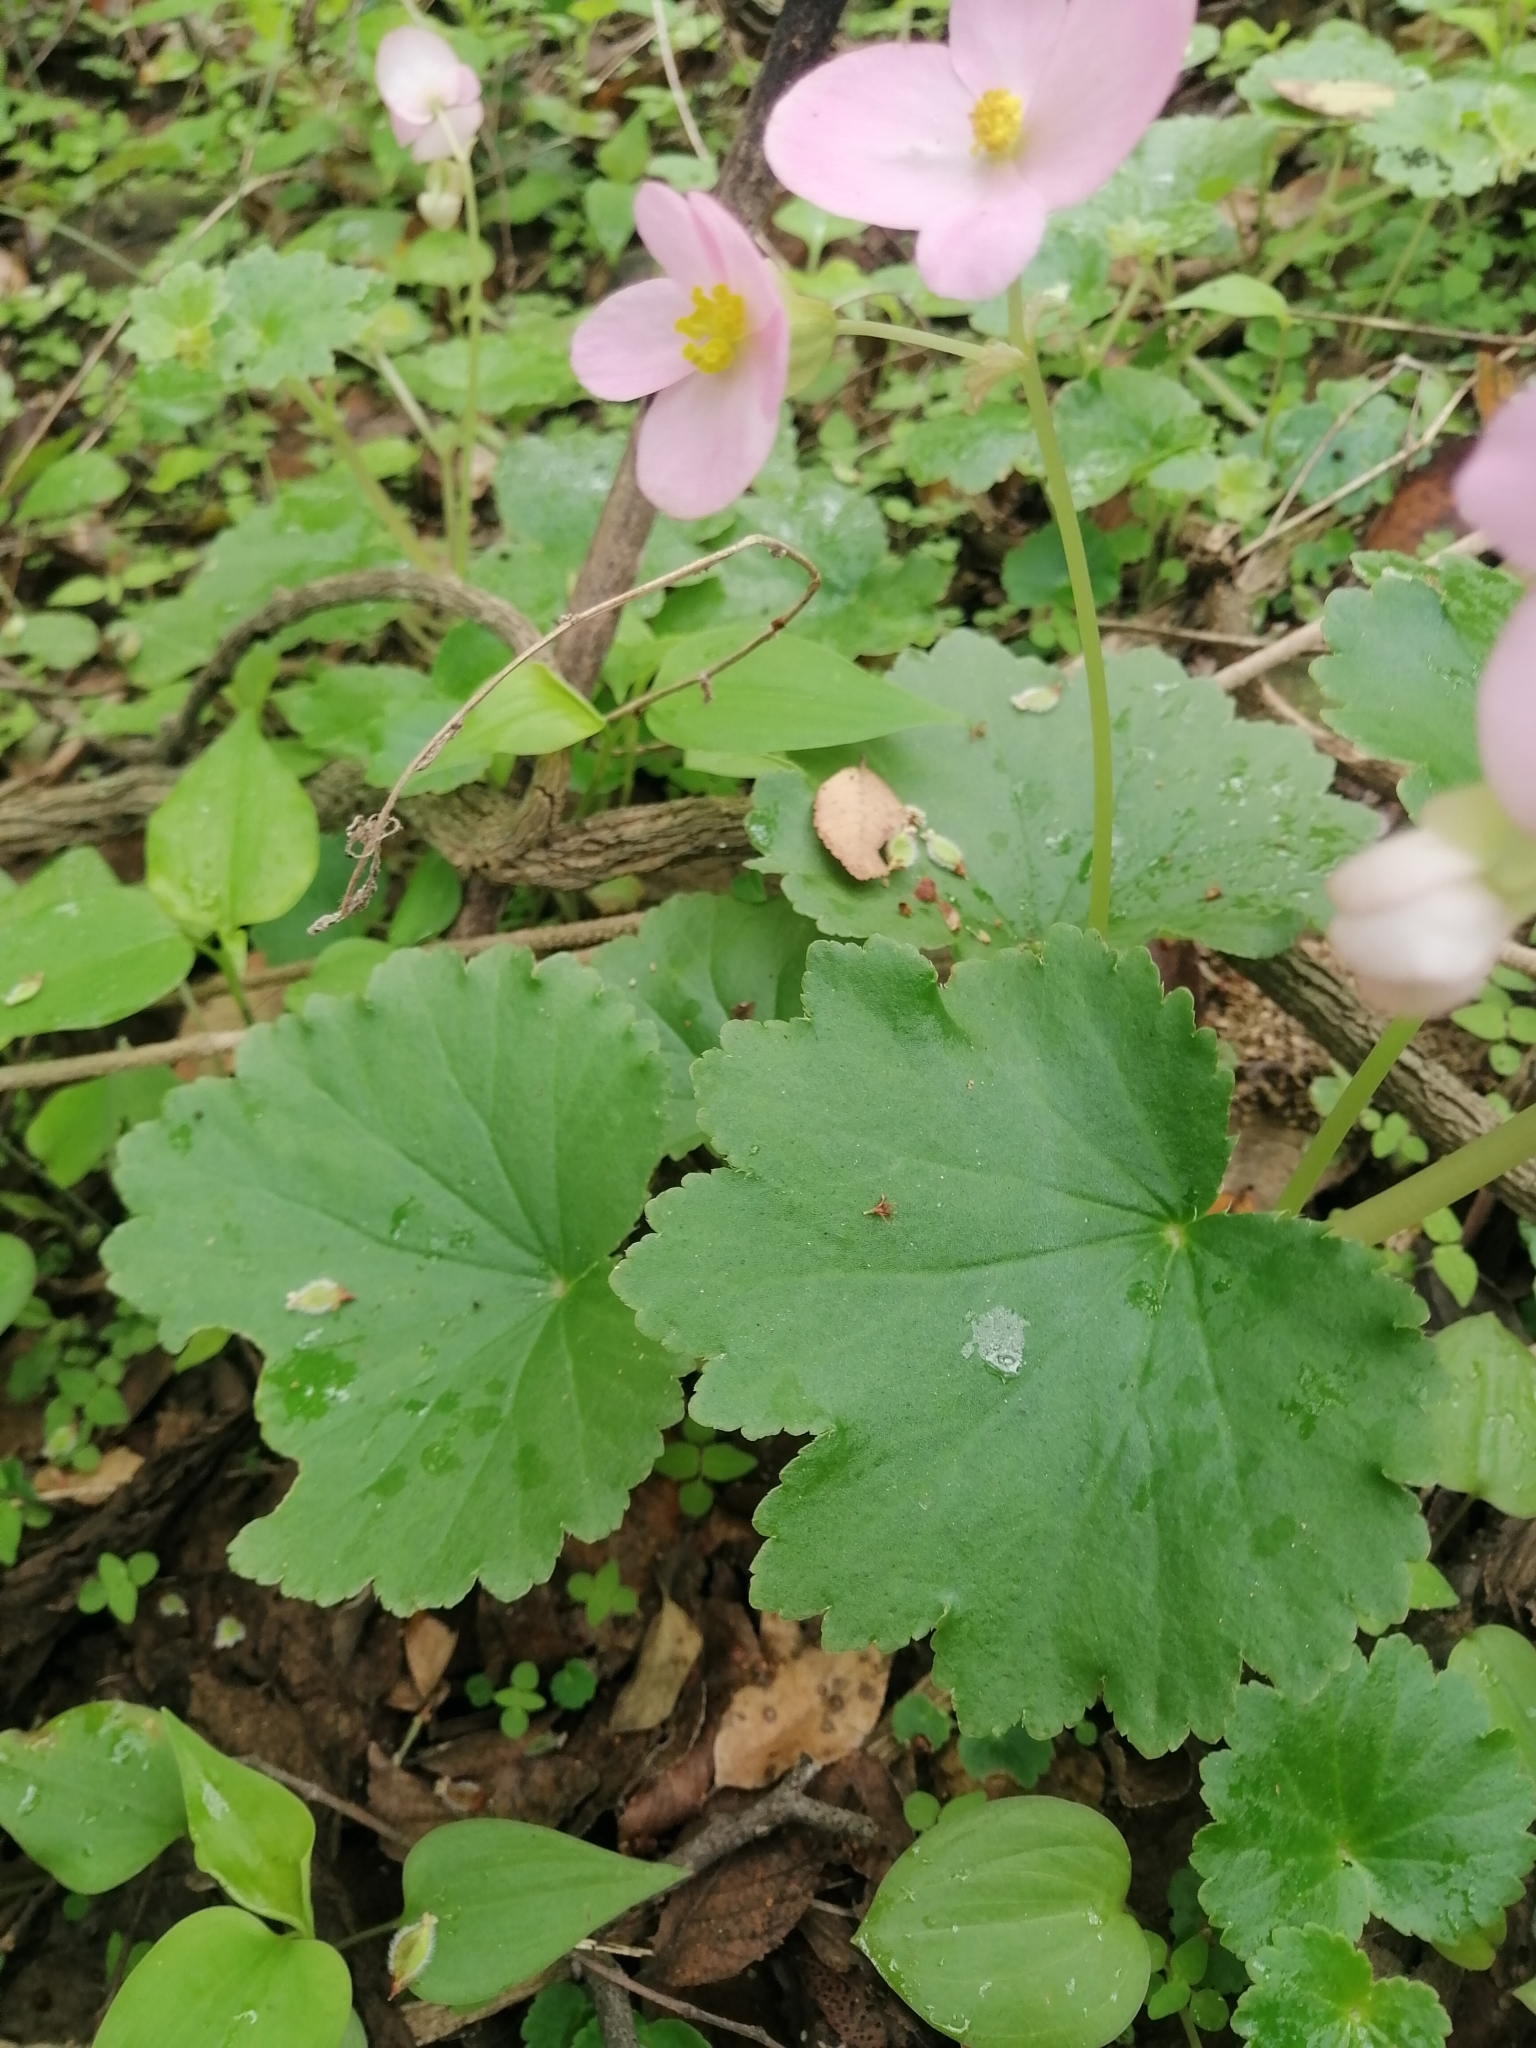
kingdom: Plantae
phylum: Tracheophyta
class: Magnoliopsida
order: Cucurbitales
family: Begoniaceae
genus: Begonia
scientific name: Begonia uniflora
